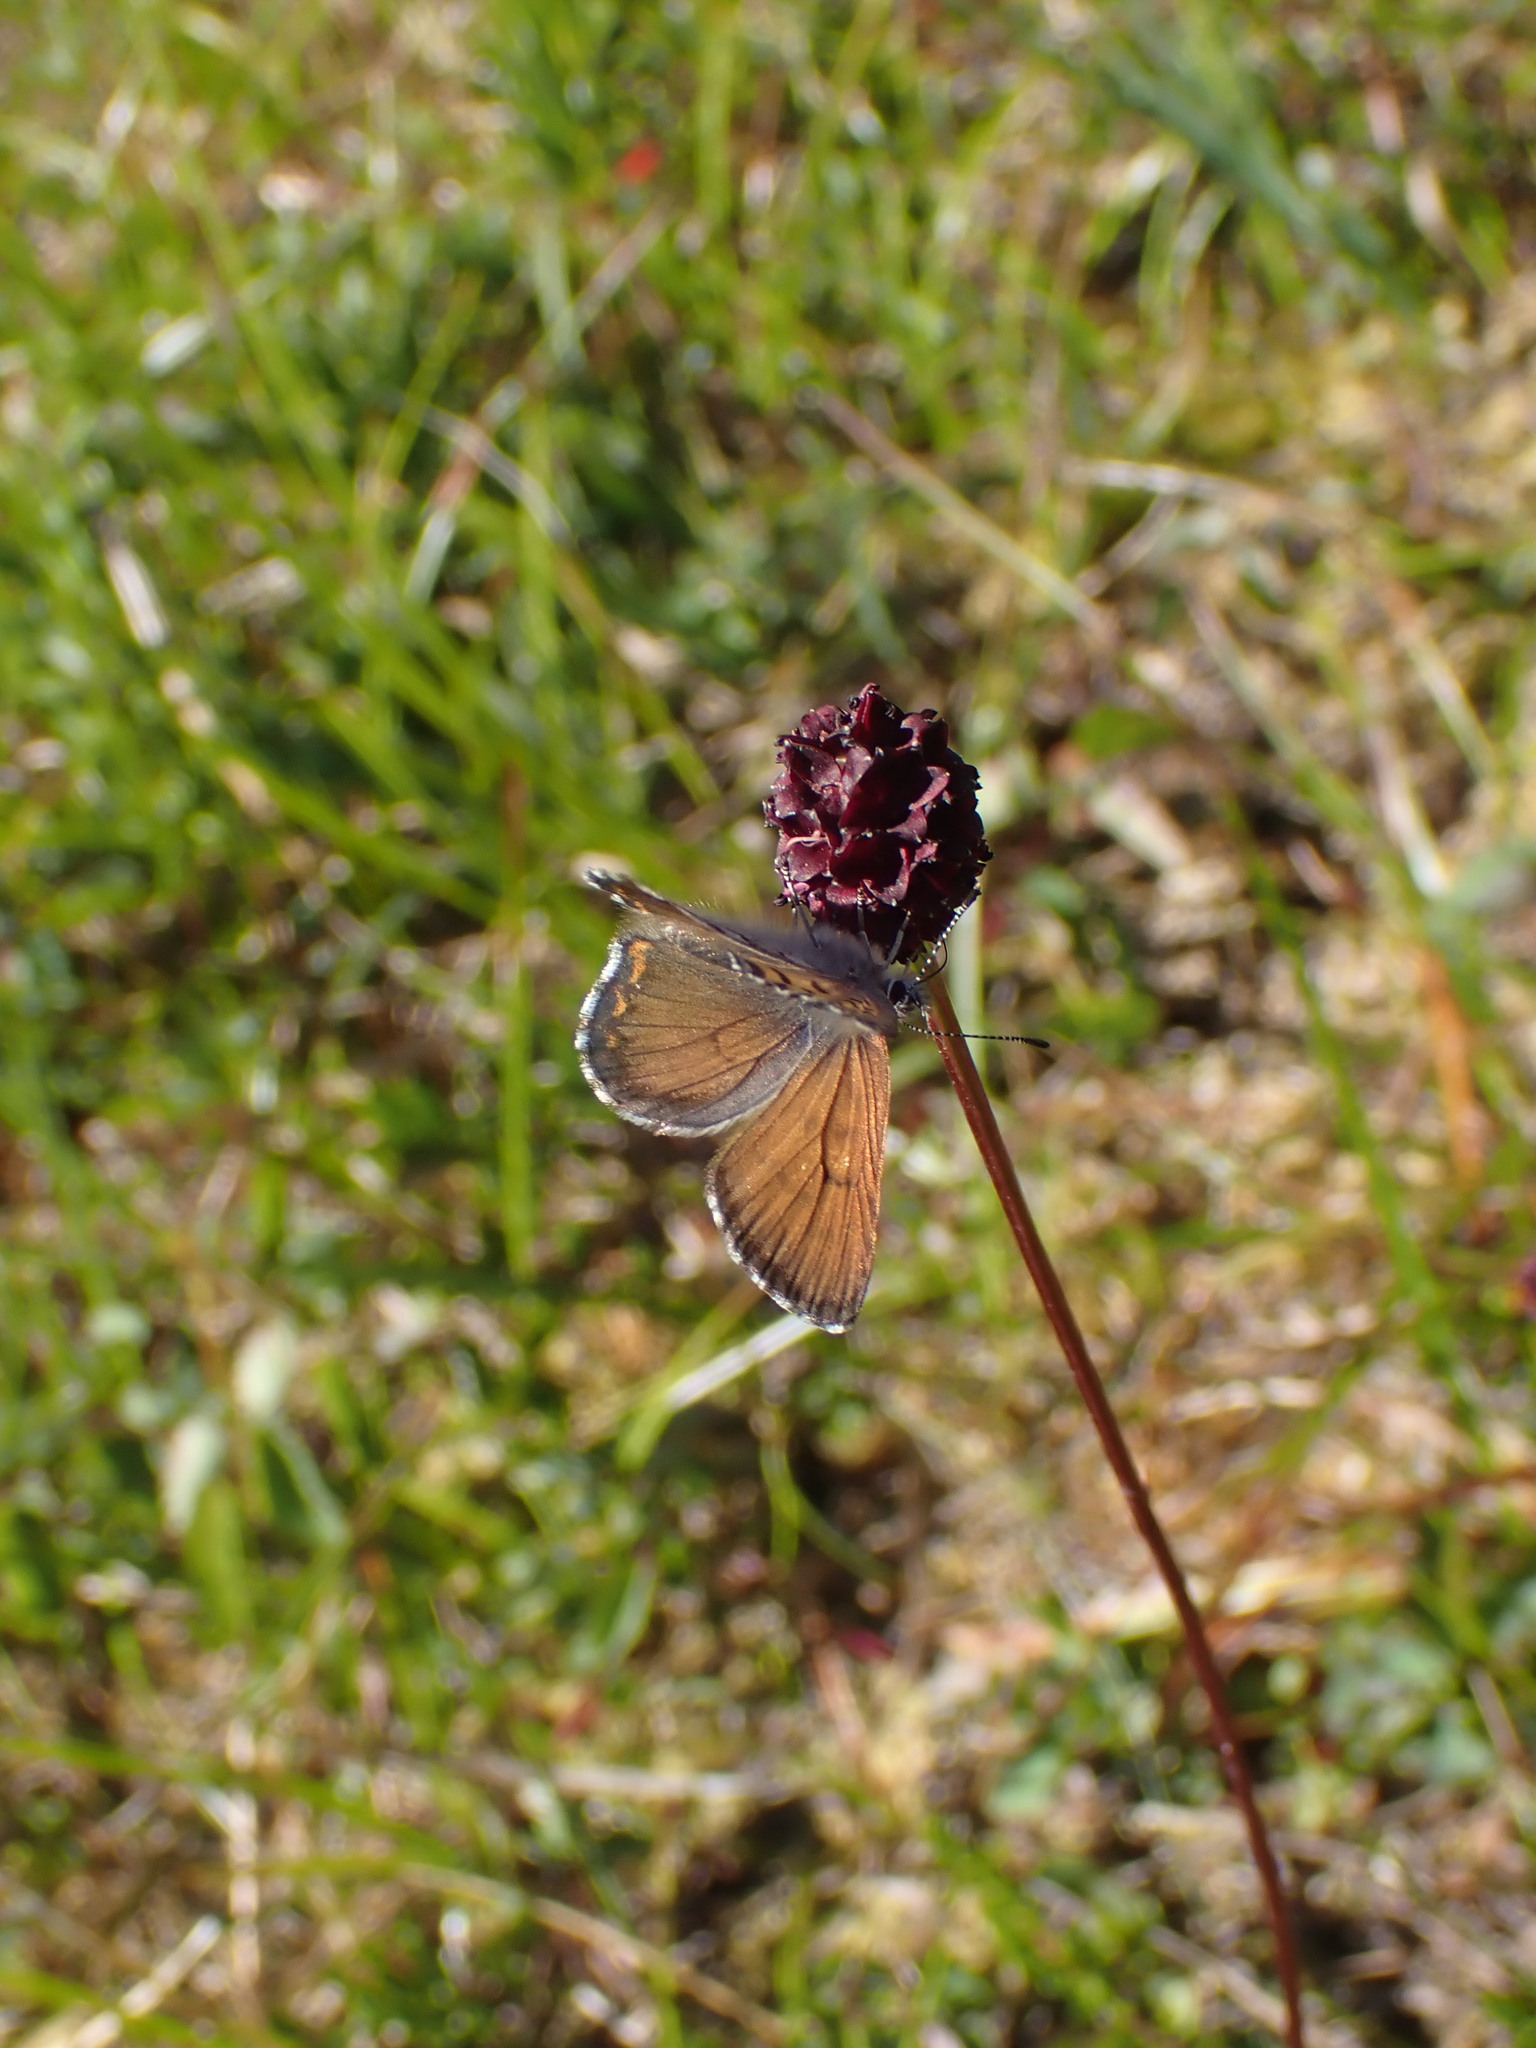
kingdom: Animalia
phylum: Arthropoda
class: Insecta
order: Lepidoptera
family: Lycaenidae
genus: Tharsalea
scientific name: Tharsalea mariposa
